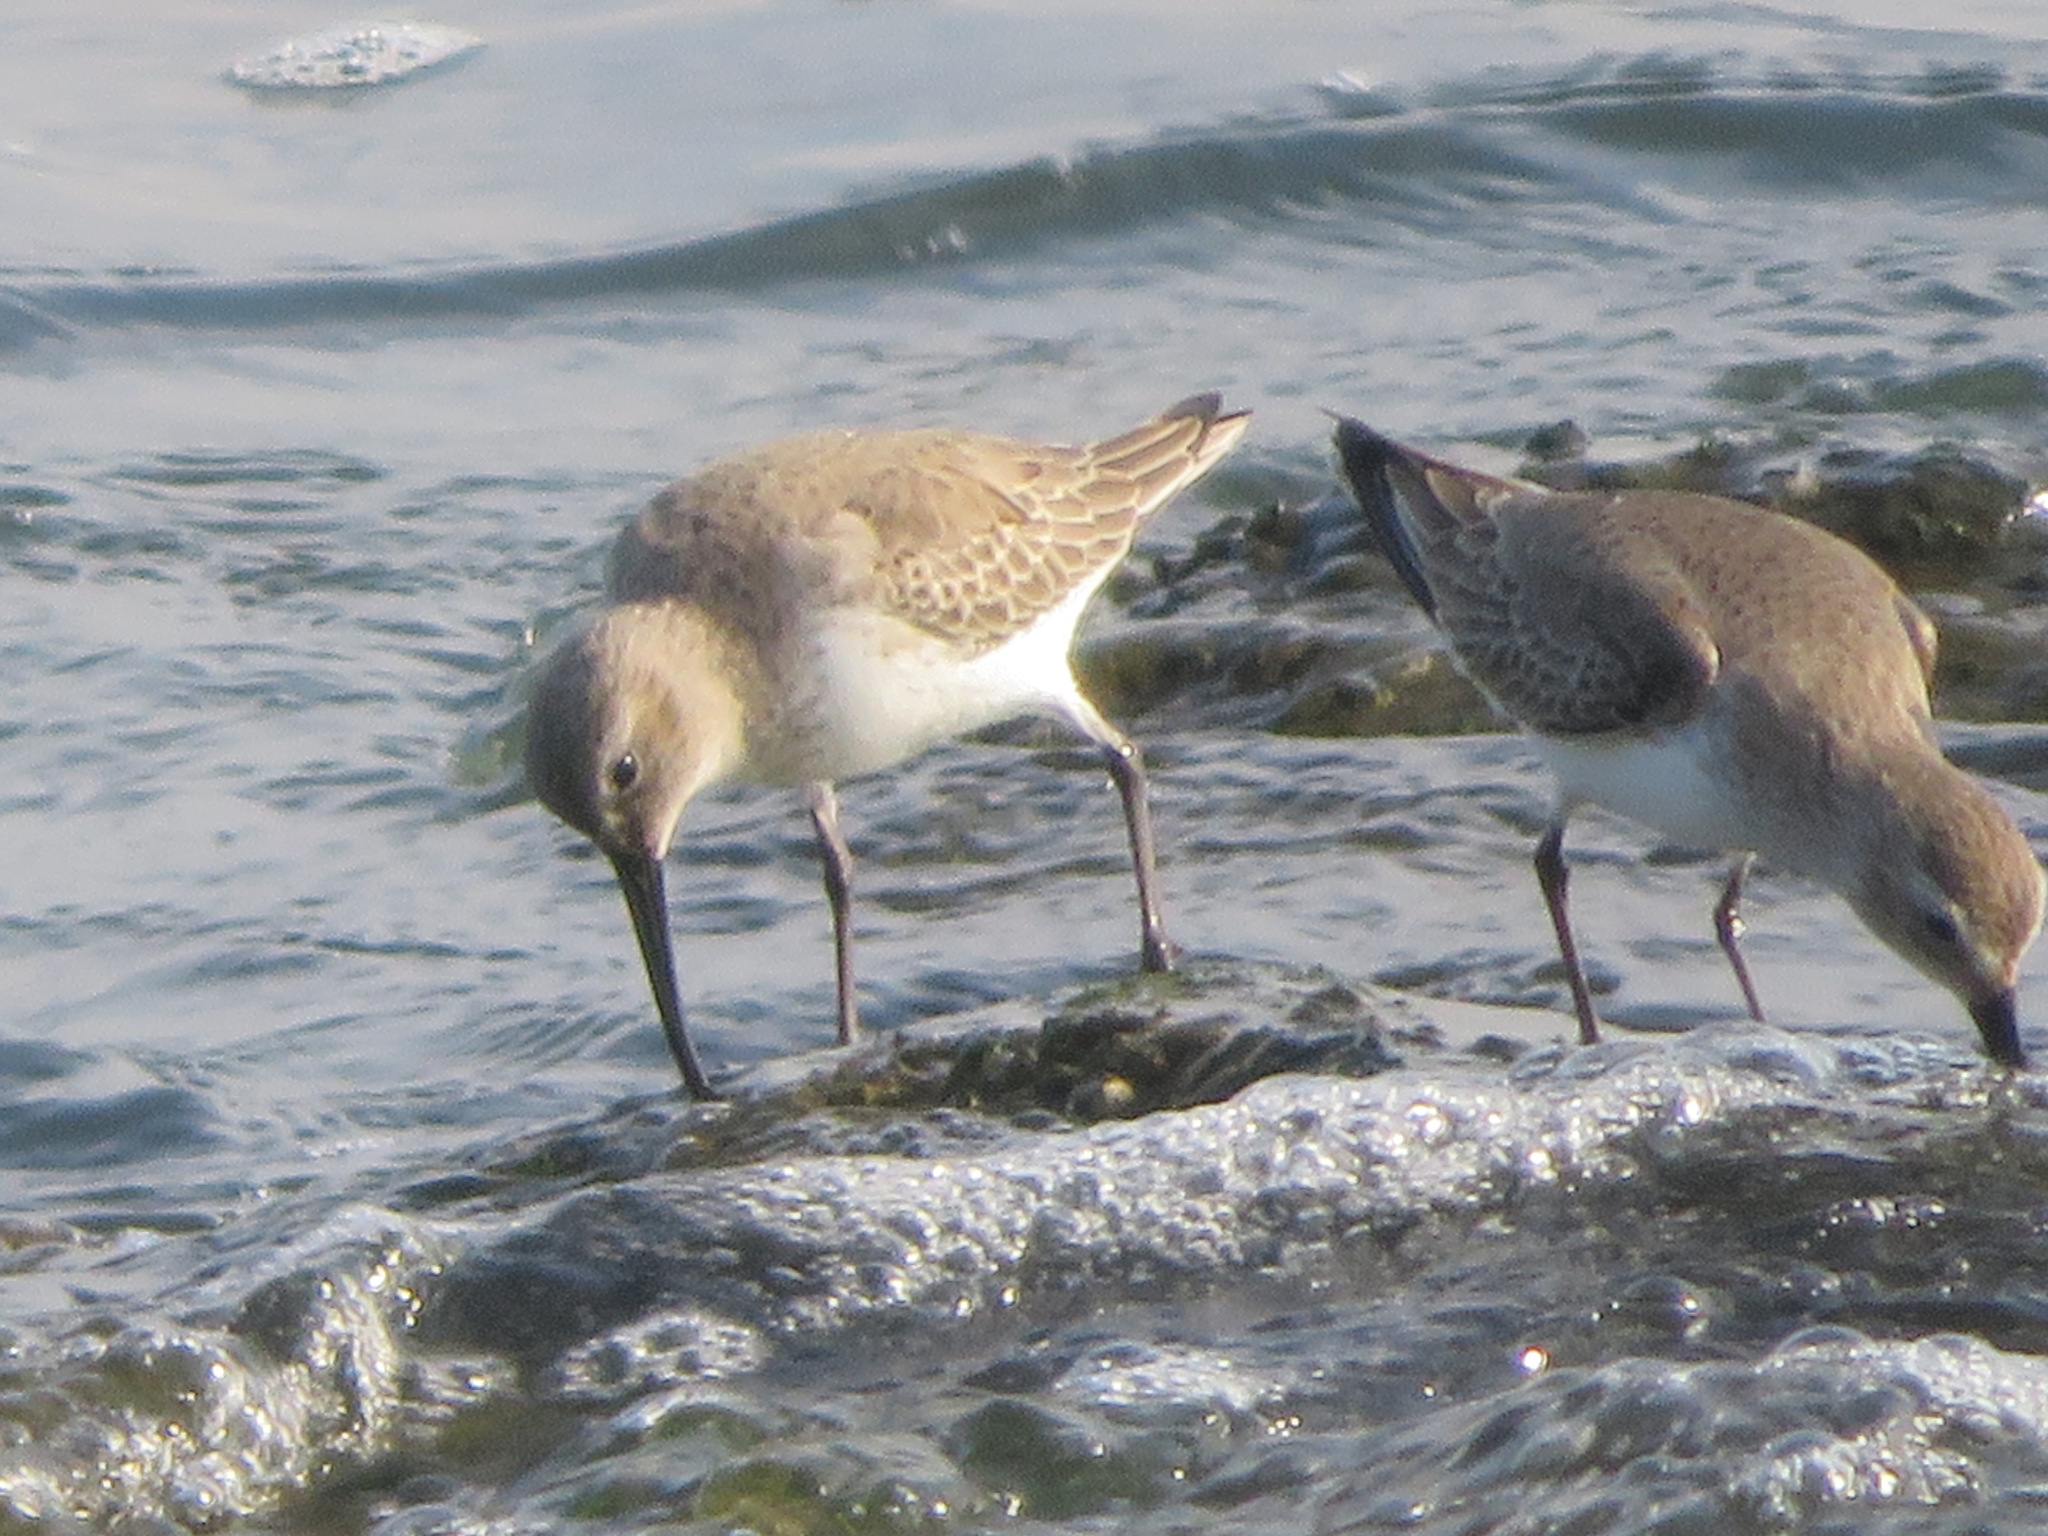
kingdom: Animalia
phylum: Chordata
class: Aves
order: Charadriiformes
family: Scolopacidae
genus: Calidris
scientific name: Calidris alpina
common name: Dunlin
